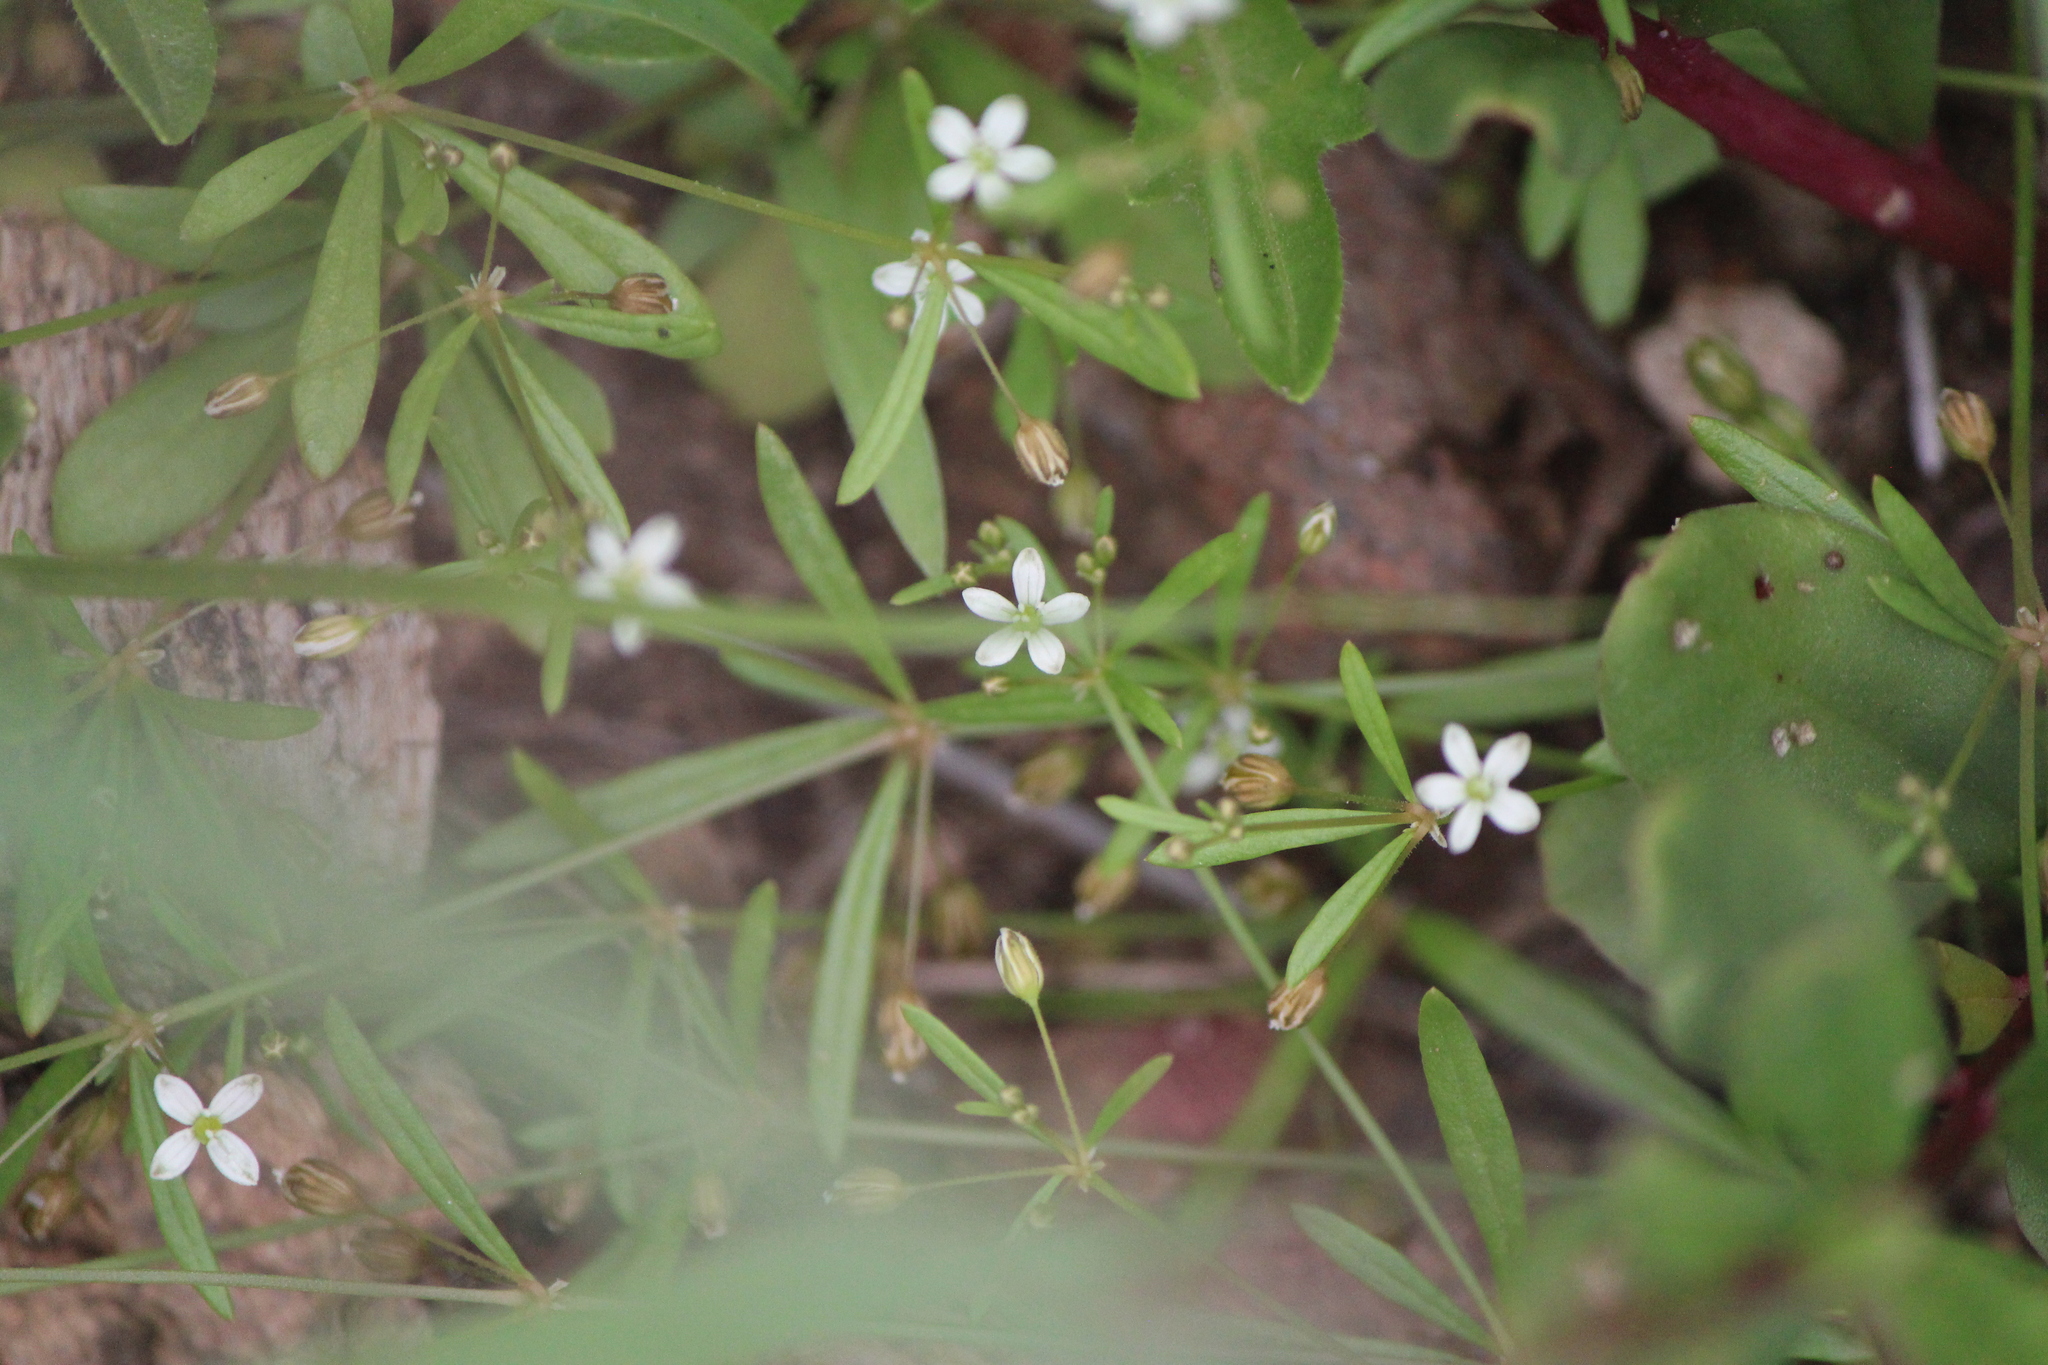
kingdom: Plantae
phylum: Tracheophyta
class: Magnoliopsida
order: Caryophyllales
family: Molluginaceae
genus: Mollugo
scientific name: Mollugo verticillata
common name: Green carpetweed
